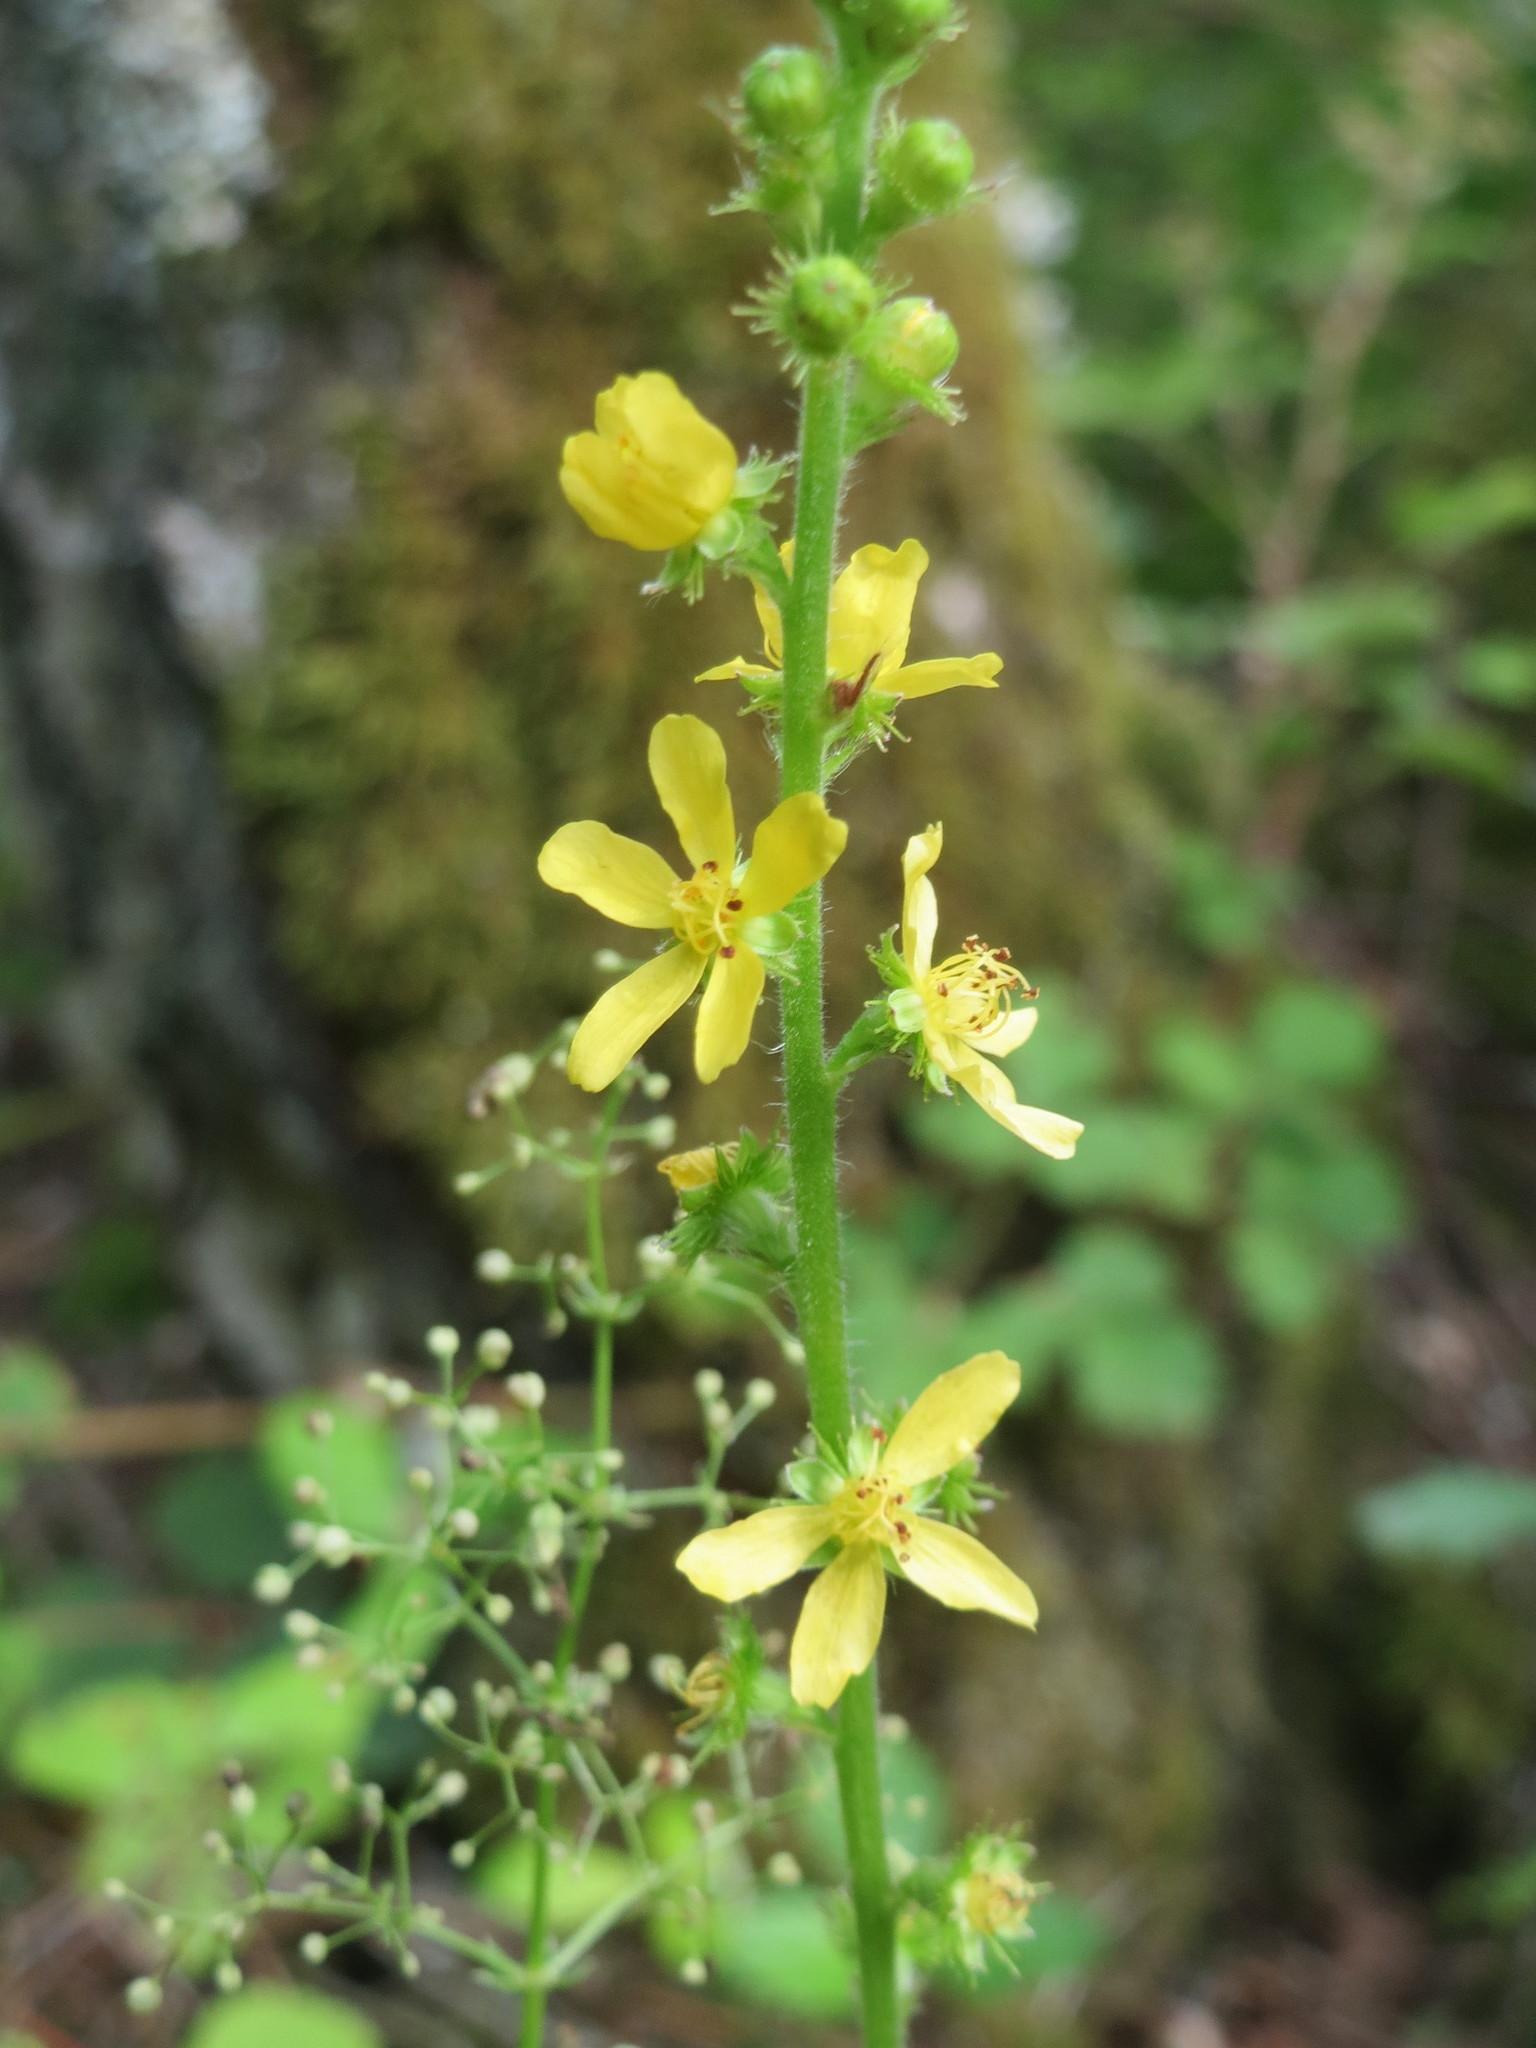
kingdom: Plantae
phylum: Tracheophyta
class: Magnoliopsida
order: Rosales
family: Rosaceae
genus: Agrimonia
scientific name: Agrimonia eupatoria
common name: Agrimony
